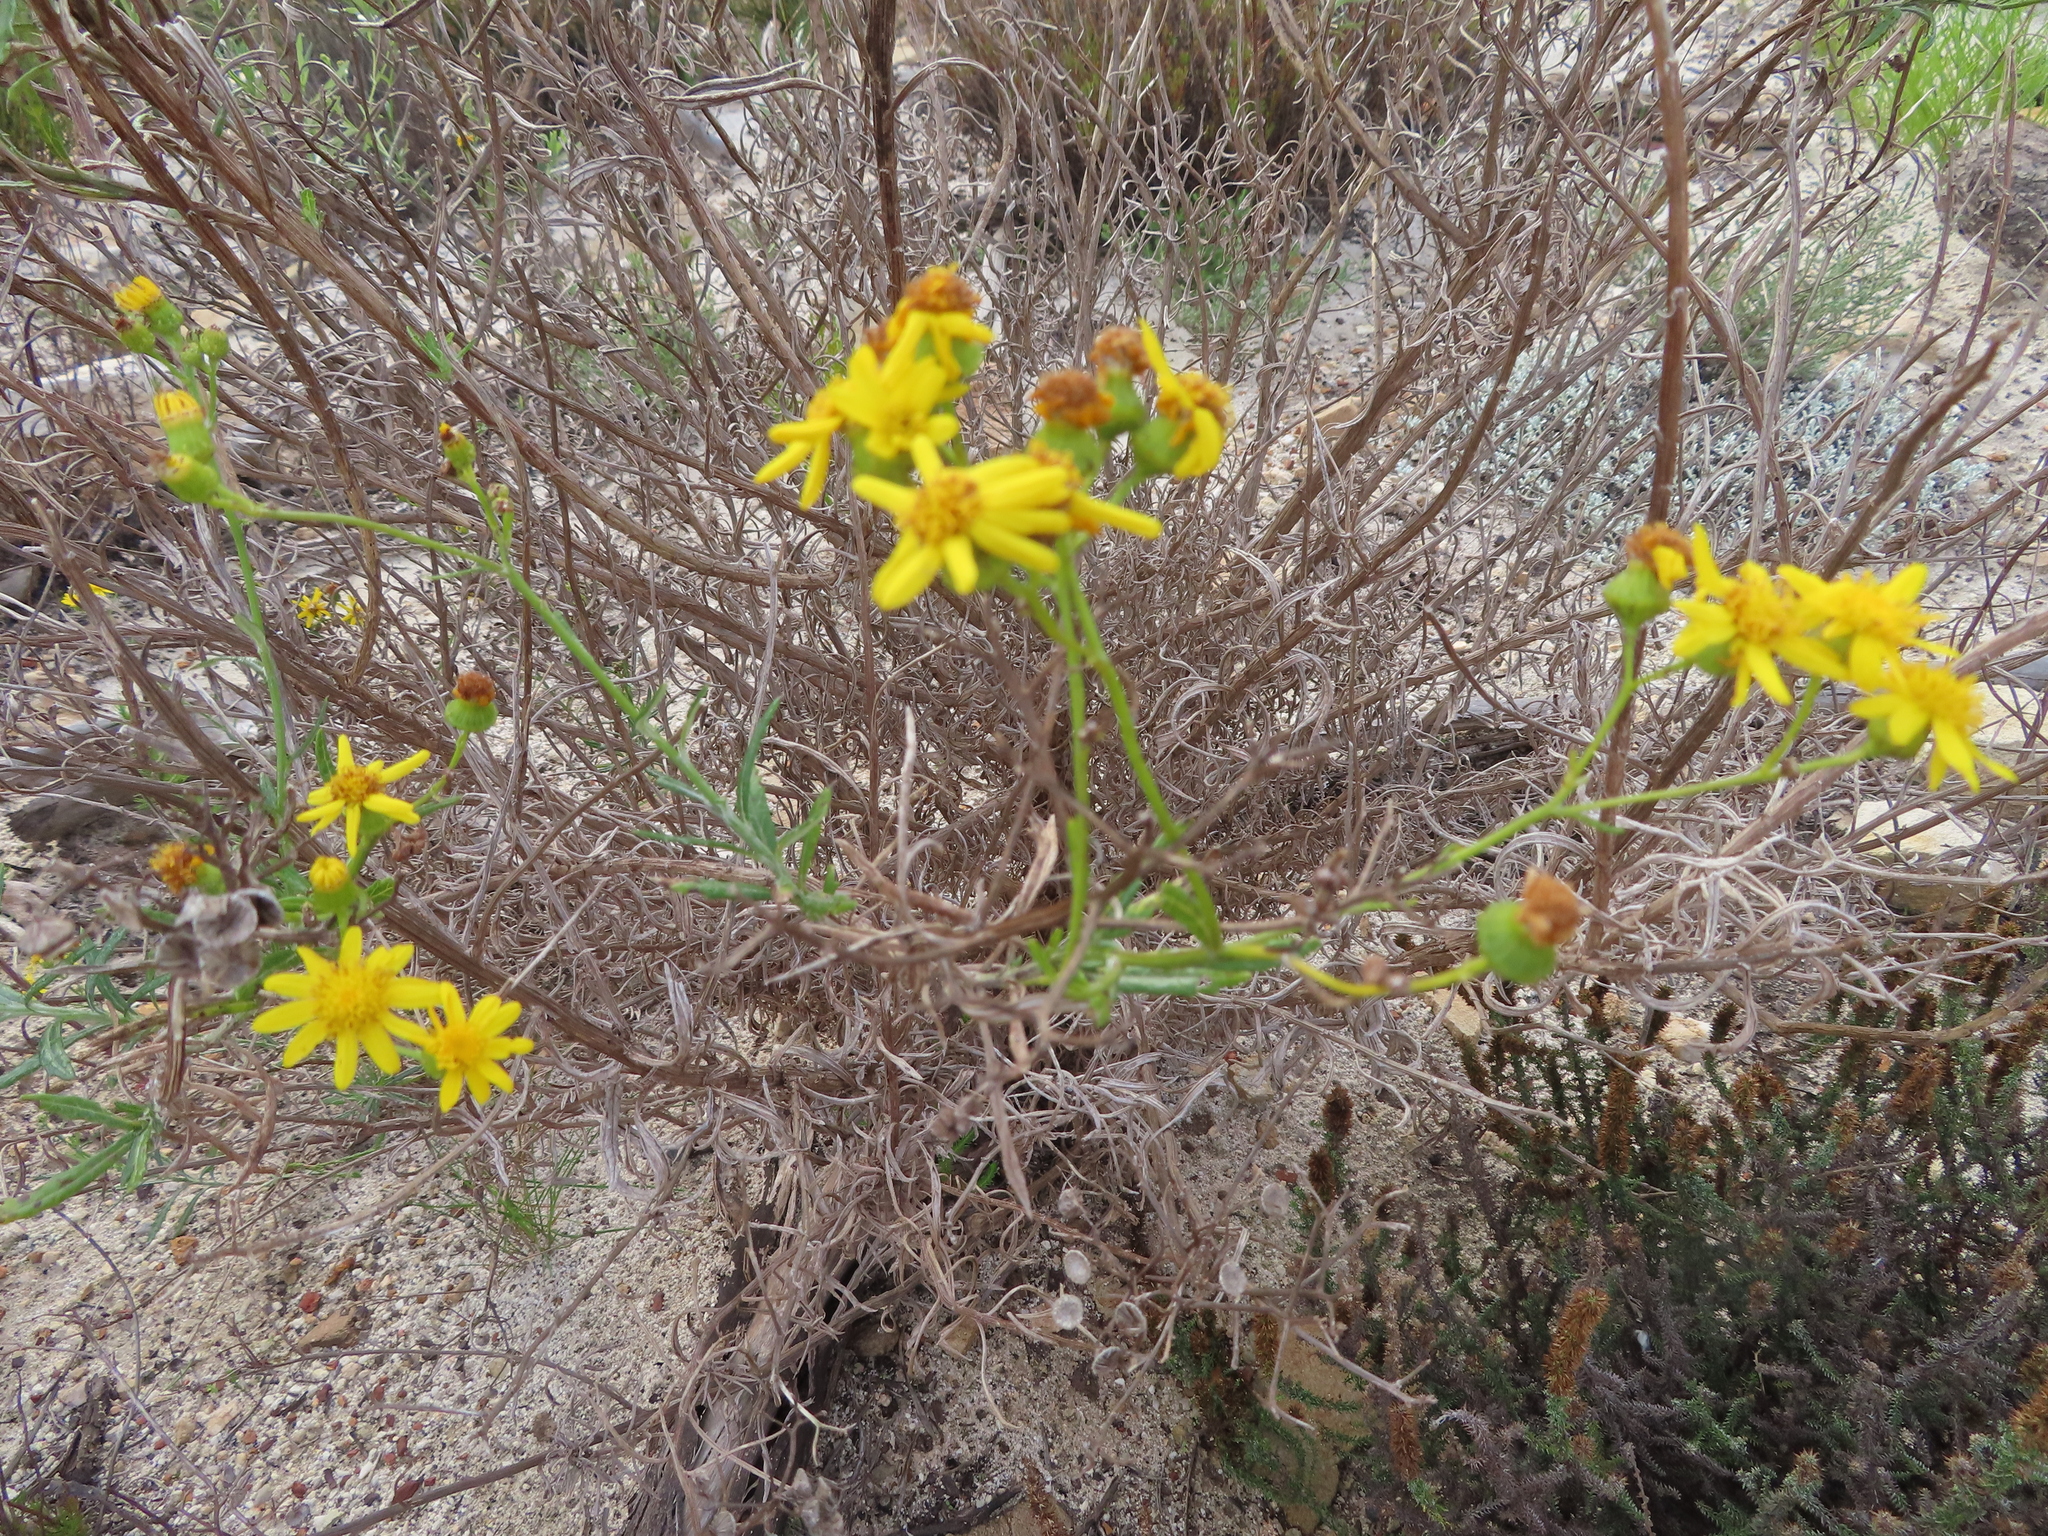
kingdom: Plantae
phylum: Tracheophyta
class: Magnoliopsida
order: Asterales
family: Asteraceae
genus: Senecio
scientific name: Senecio burchellii
